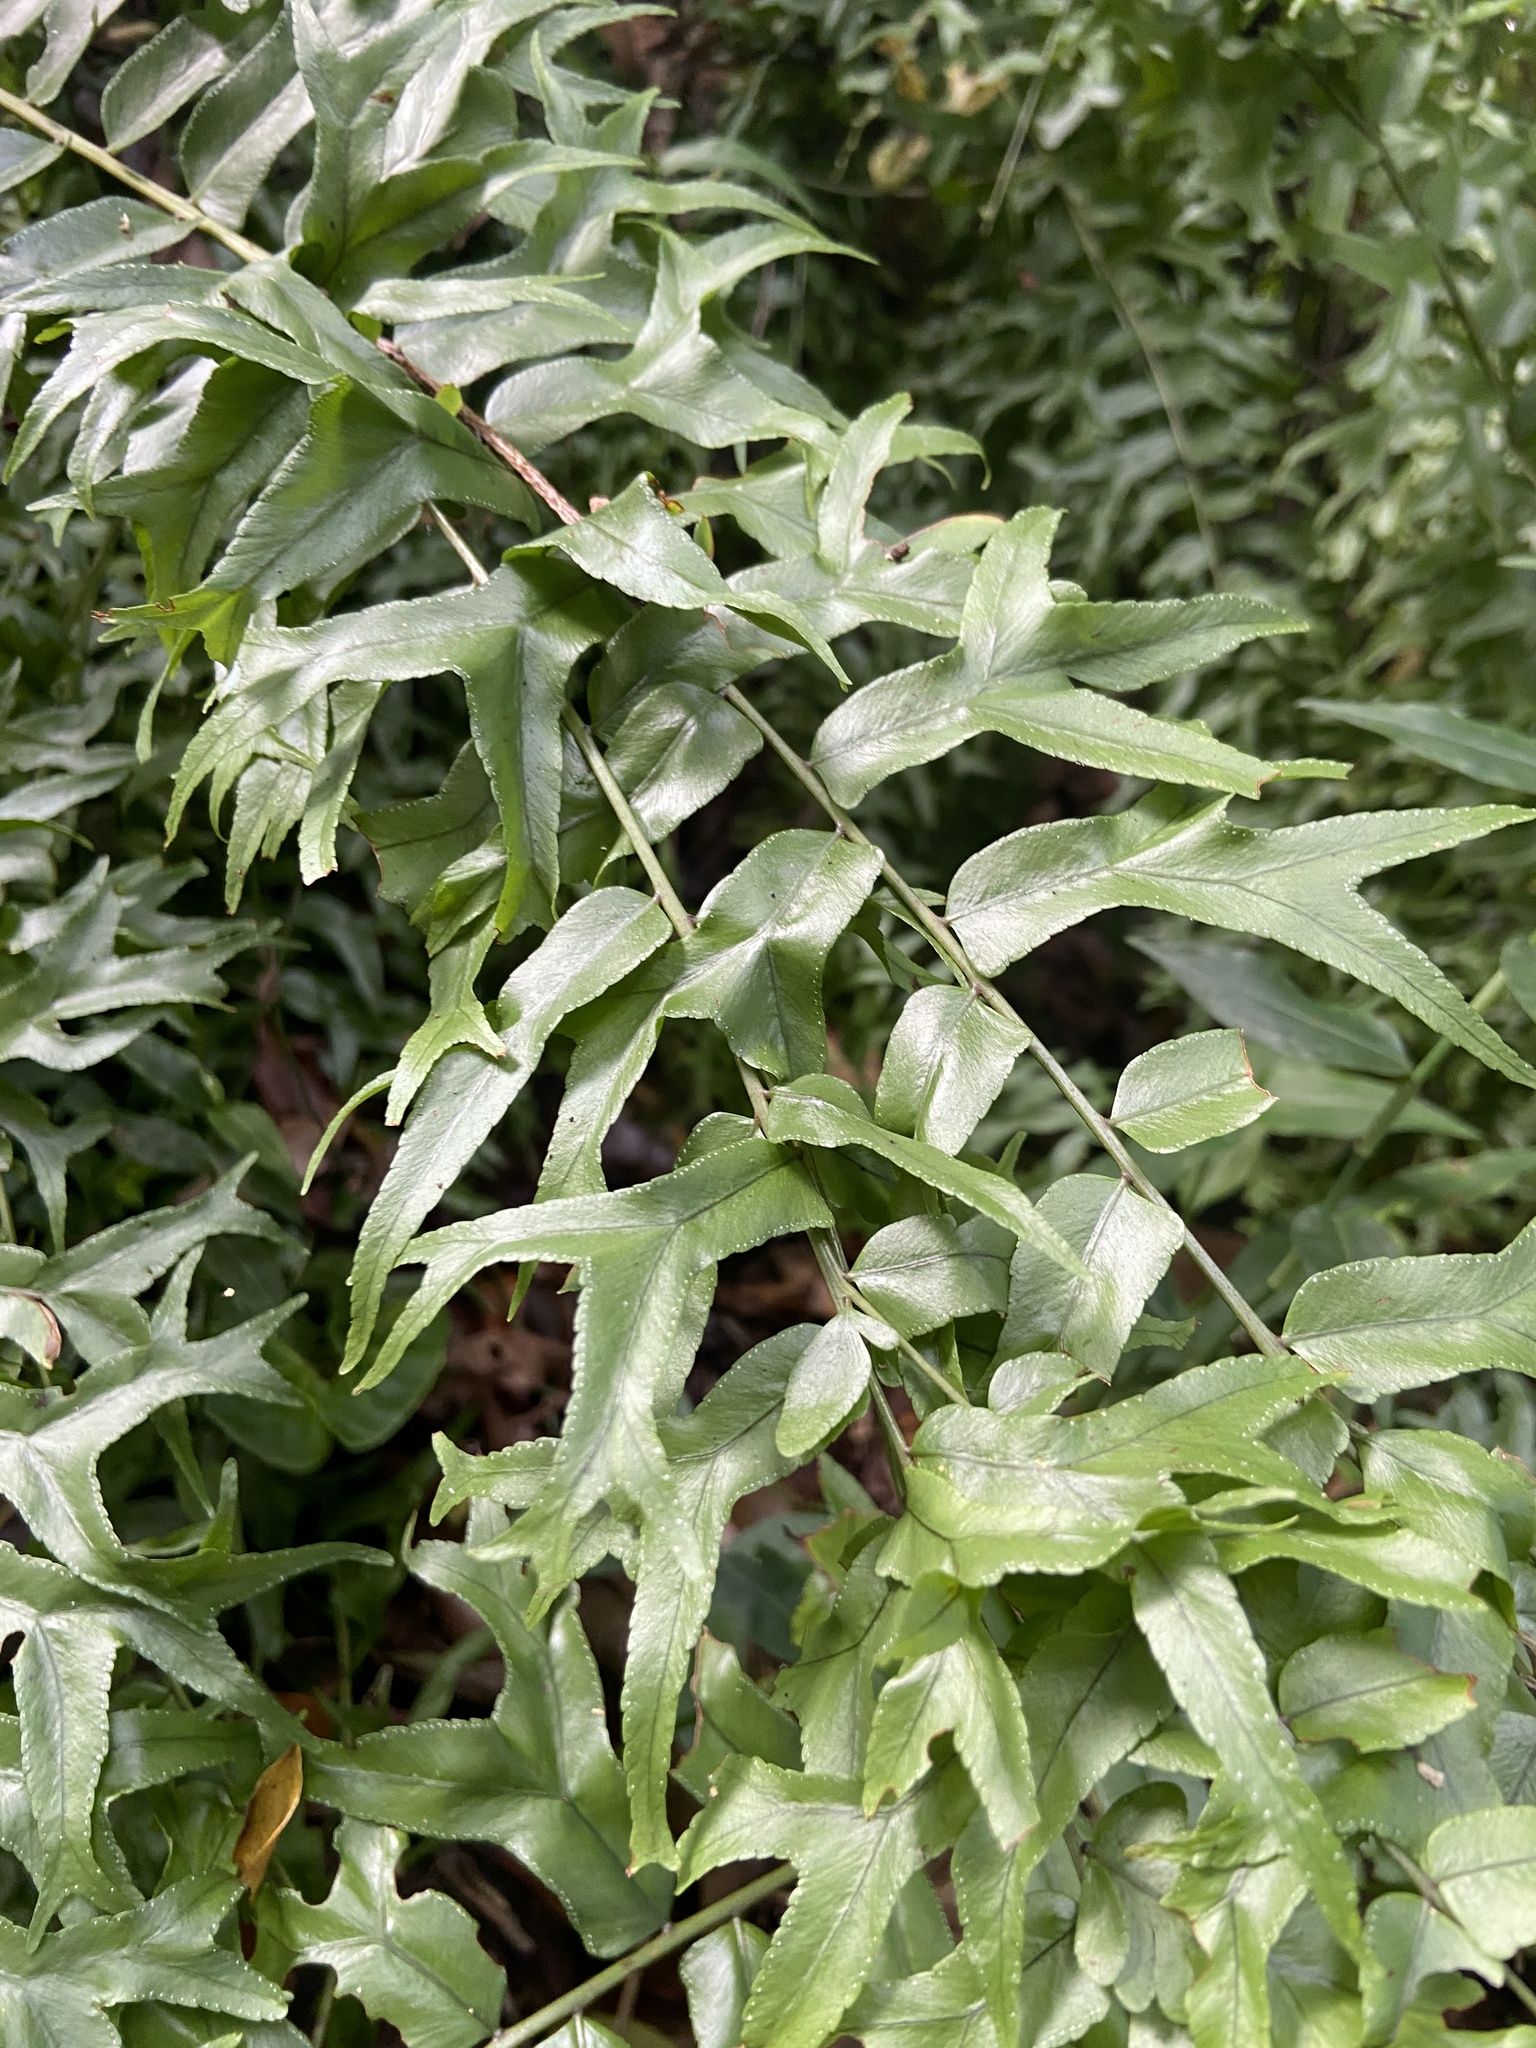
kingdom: Plantae
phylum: Tracheophyta
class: Polypodiopsida
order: Polypodiales
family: Nephrolepidaceae
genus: Nephrolepis
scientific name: Nephrolepis falcata
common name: Fishtail swordfern
